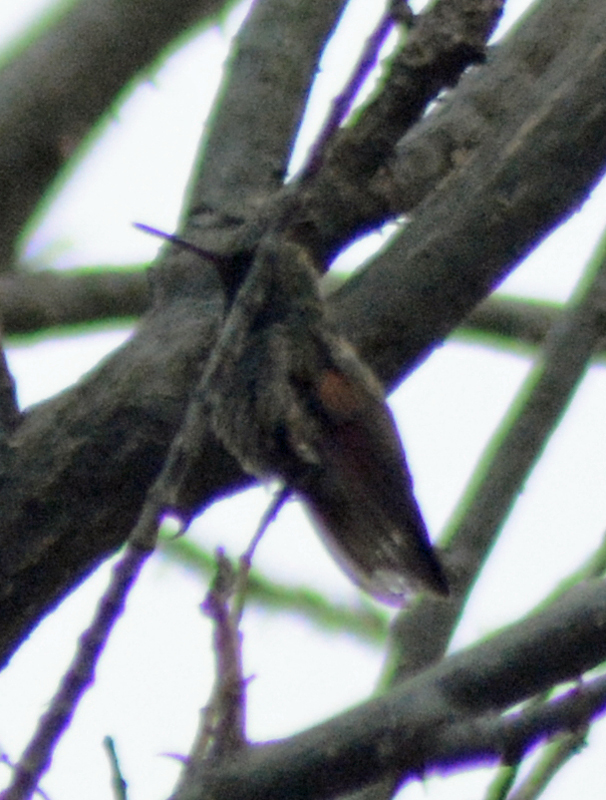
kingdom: Animalia
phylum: Chordata
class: Aves
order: Apodiformes
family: Trochilidae
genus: Saucerottia
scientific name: Saucerottia beryllina
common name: Berylline hummingbird
